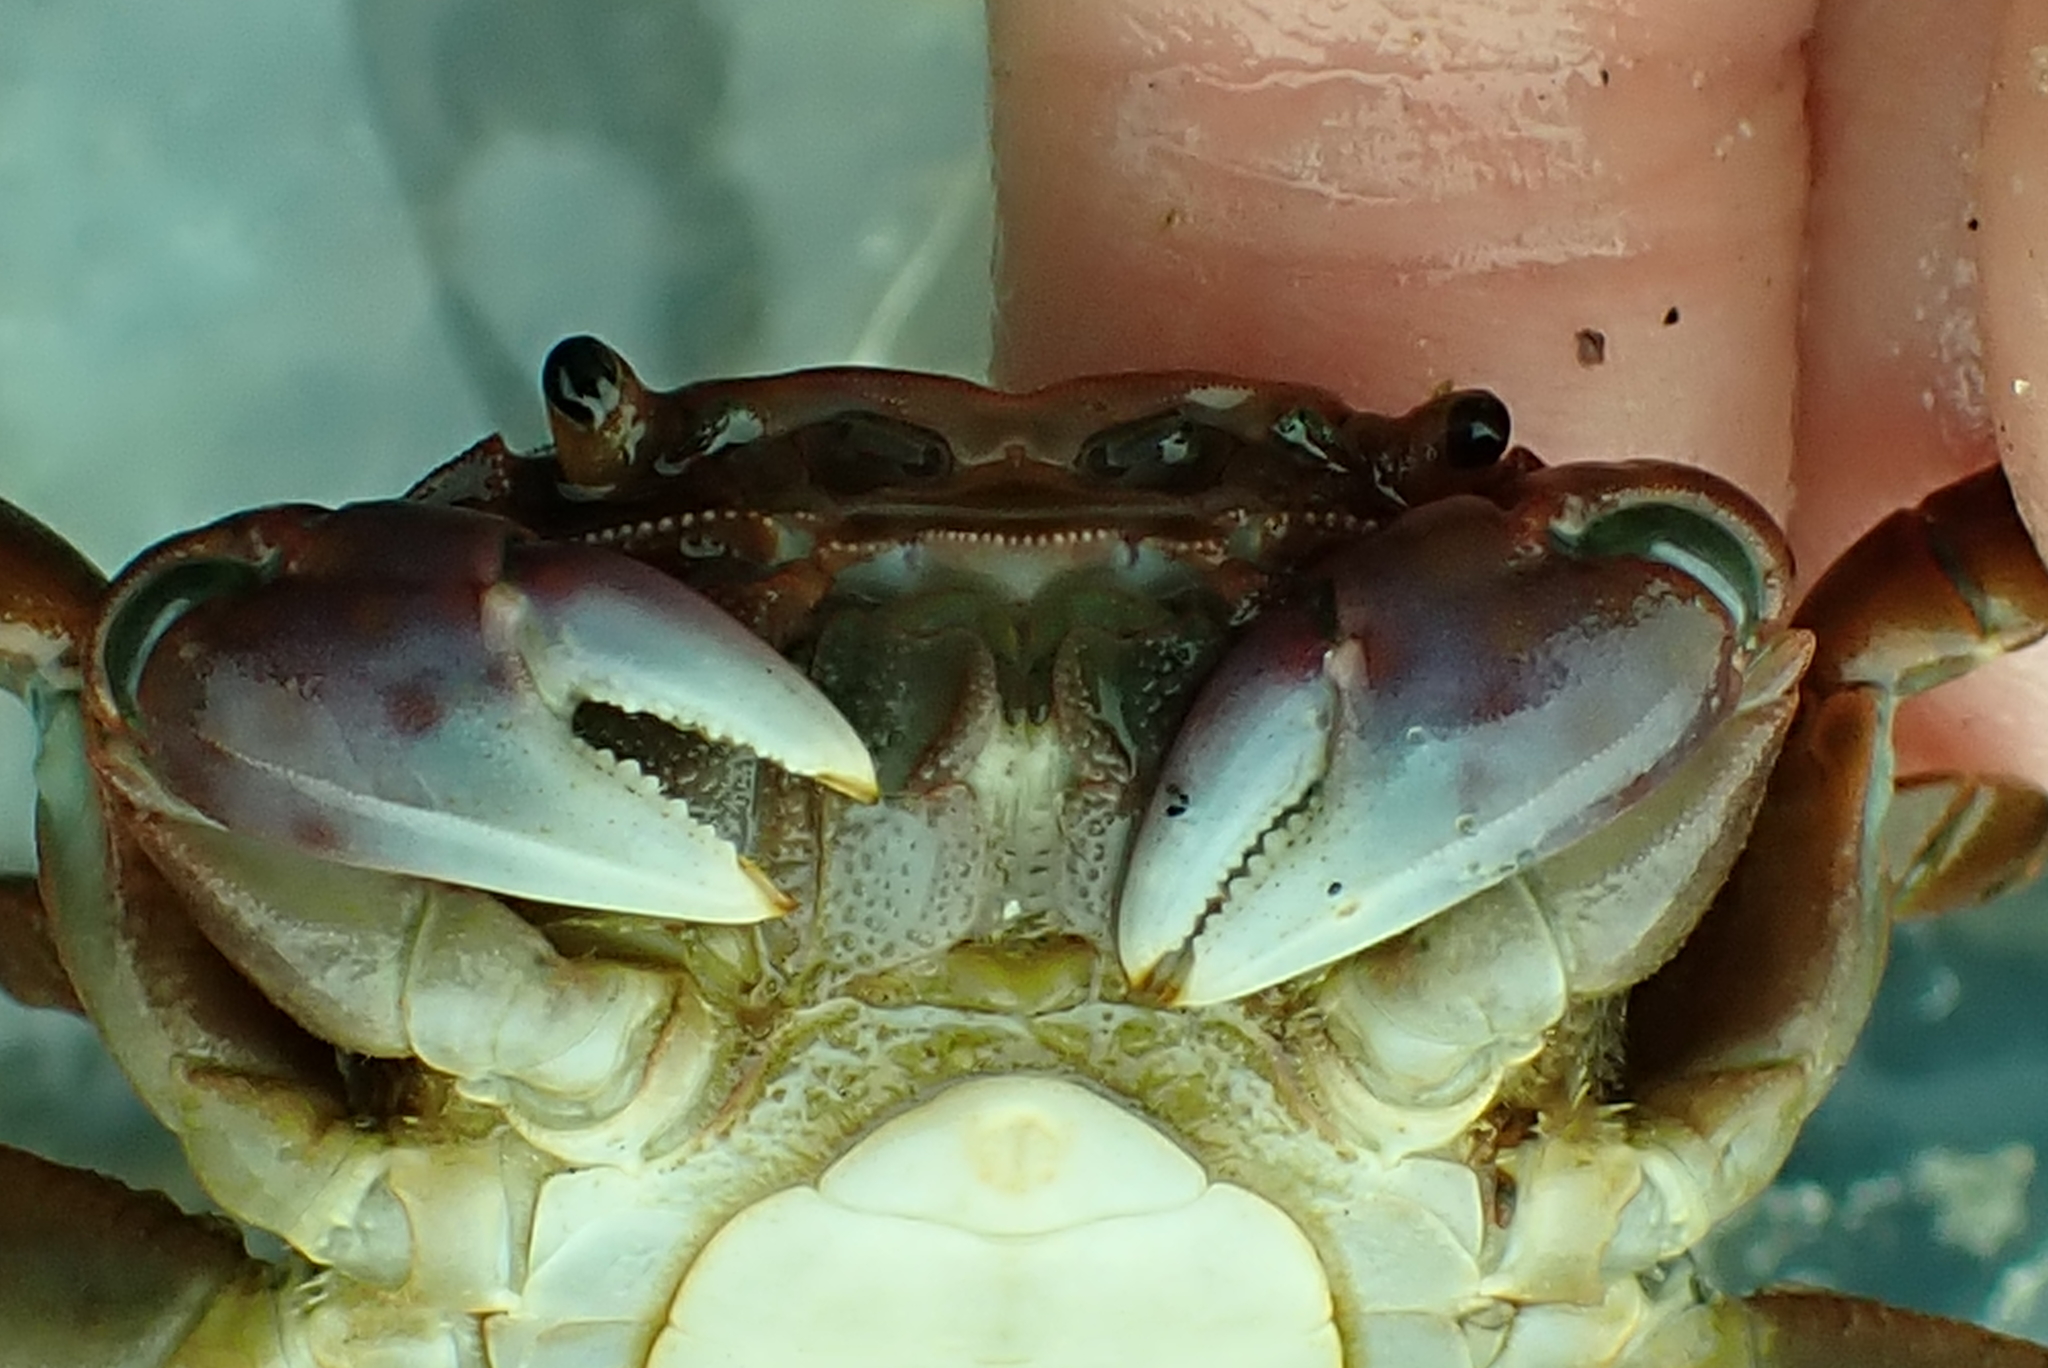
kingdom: Animalia
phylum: Arthropoda
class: Malacostraca
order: Decapoda
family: Varunidae
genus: Hemigrapsus
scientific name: Hemigrapsus nudus
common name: Purple shore crab
